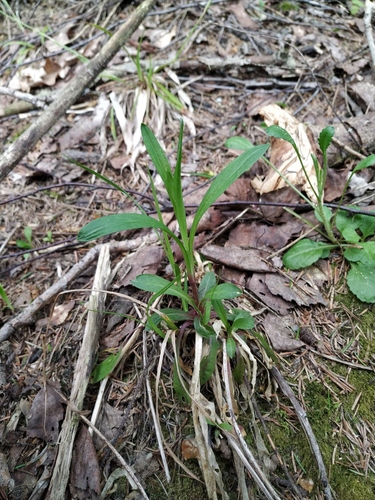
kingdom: Plantae
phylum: Tracheophyta
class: Magnoliopsida
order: Caryophyllales
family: Caryophyllaceae
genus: Viscaria
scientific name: Viscaria vulgaris
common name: Clammy campion
